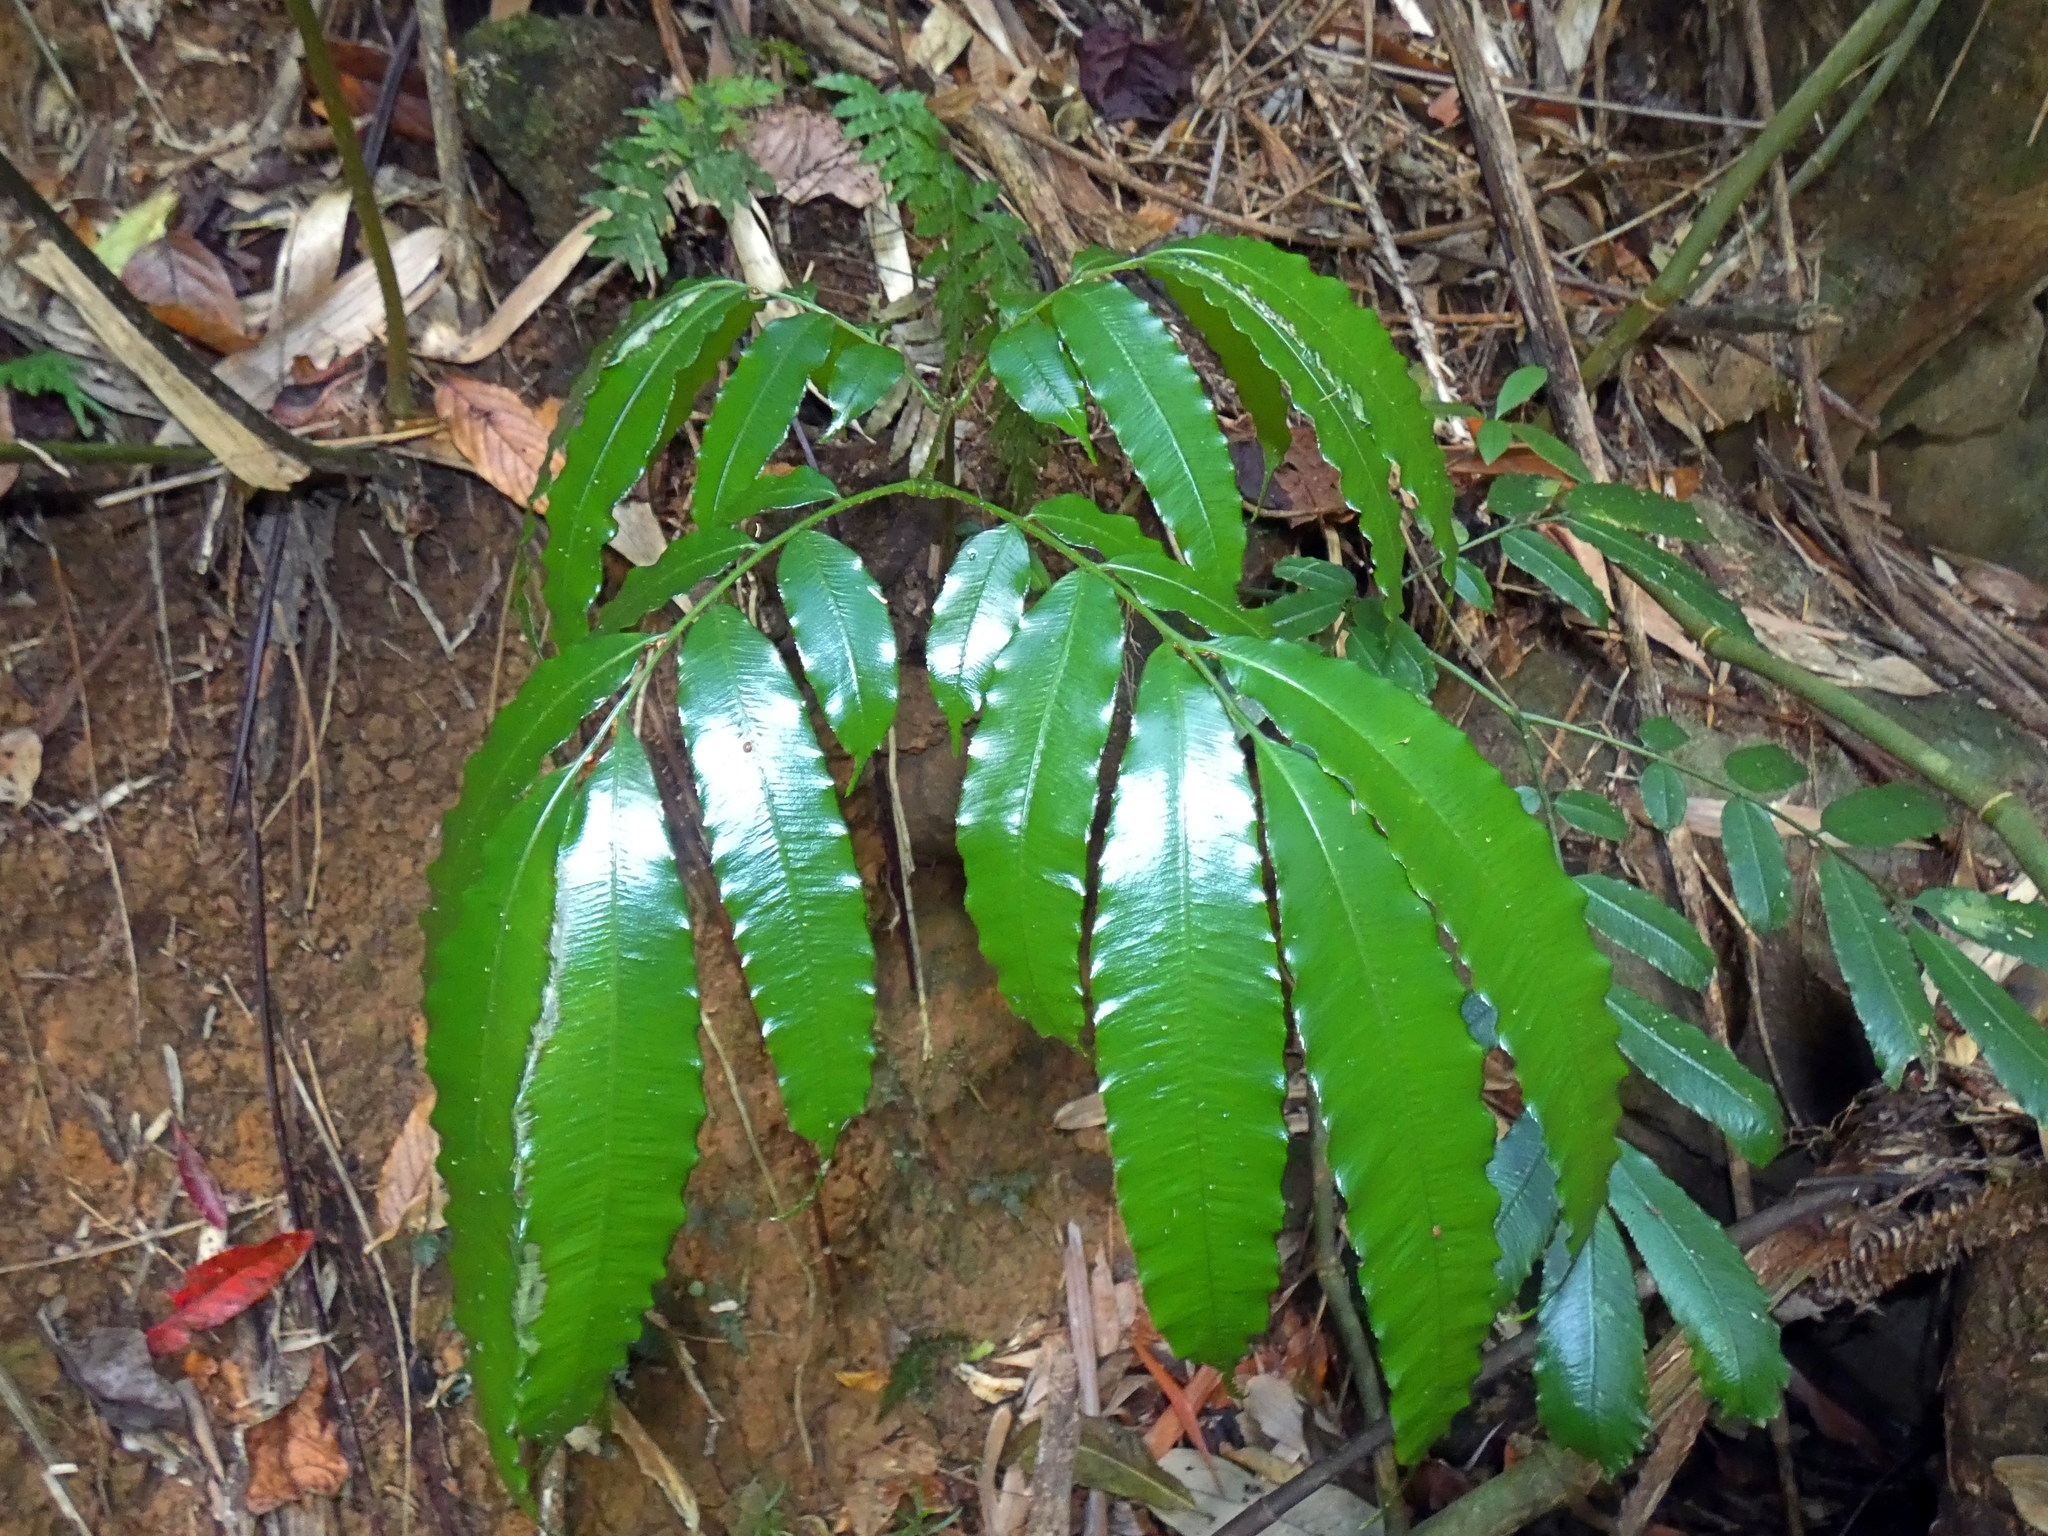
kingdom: Plantae
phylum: Tracheophyta
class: Polypodiopsida
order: Marattiales
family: Marattiaceae
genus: Ptisana
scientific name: Ptisana oreades
